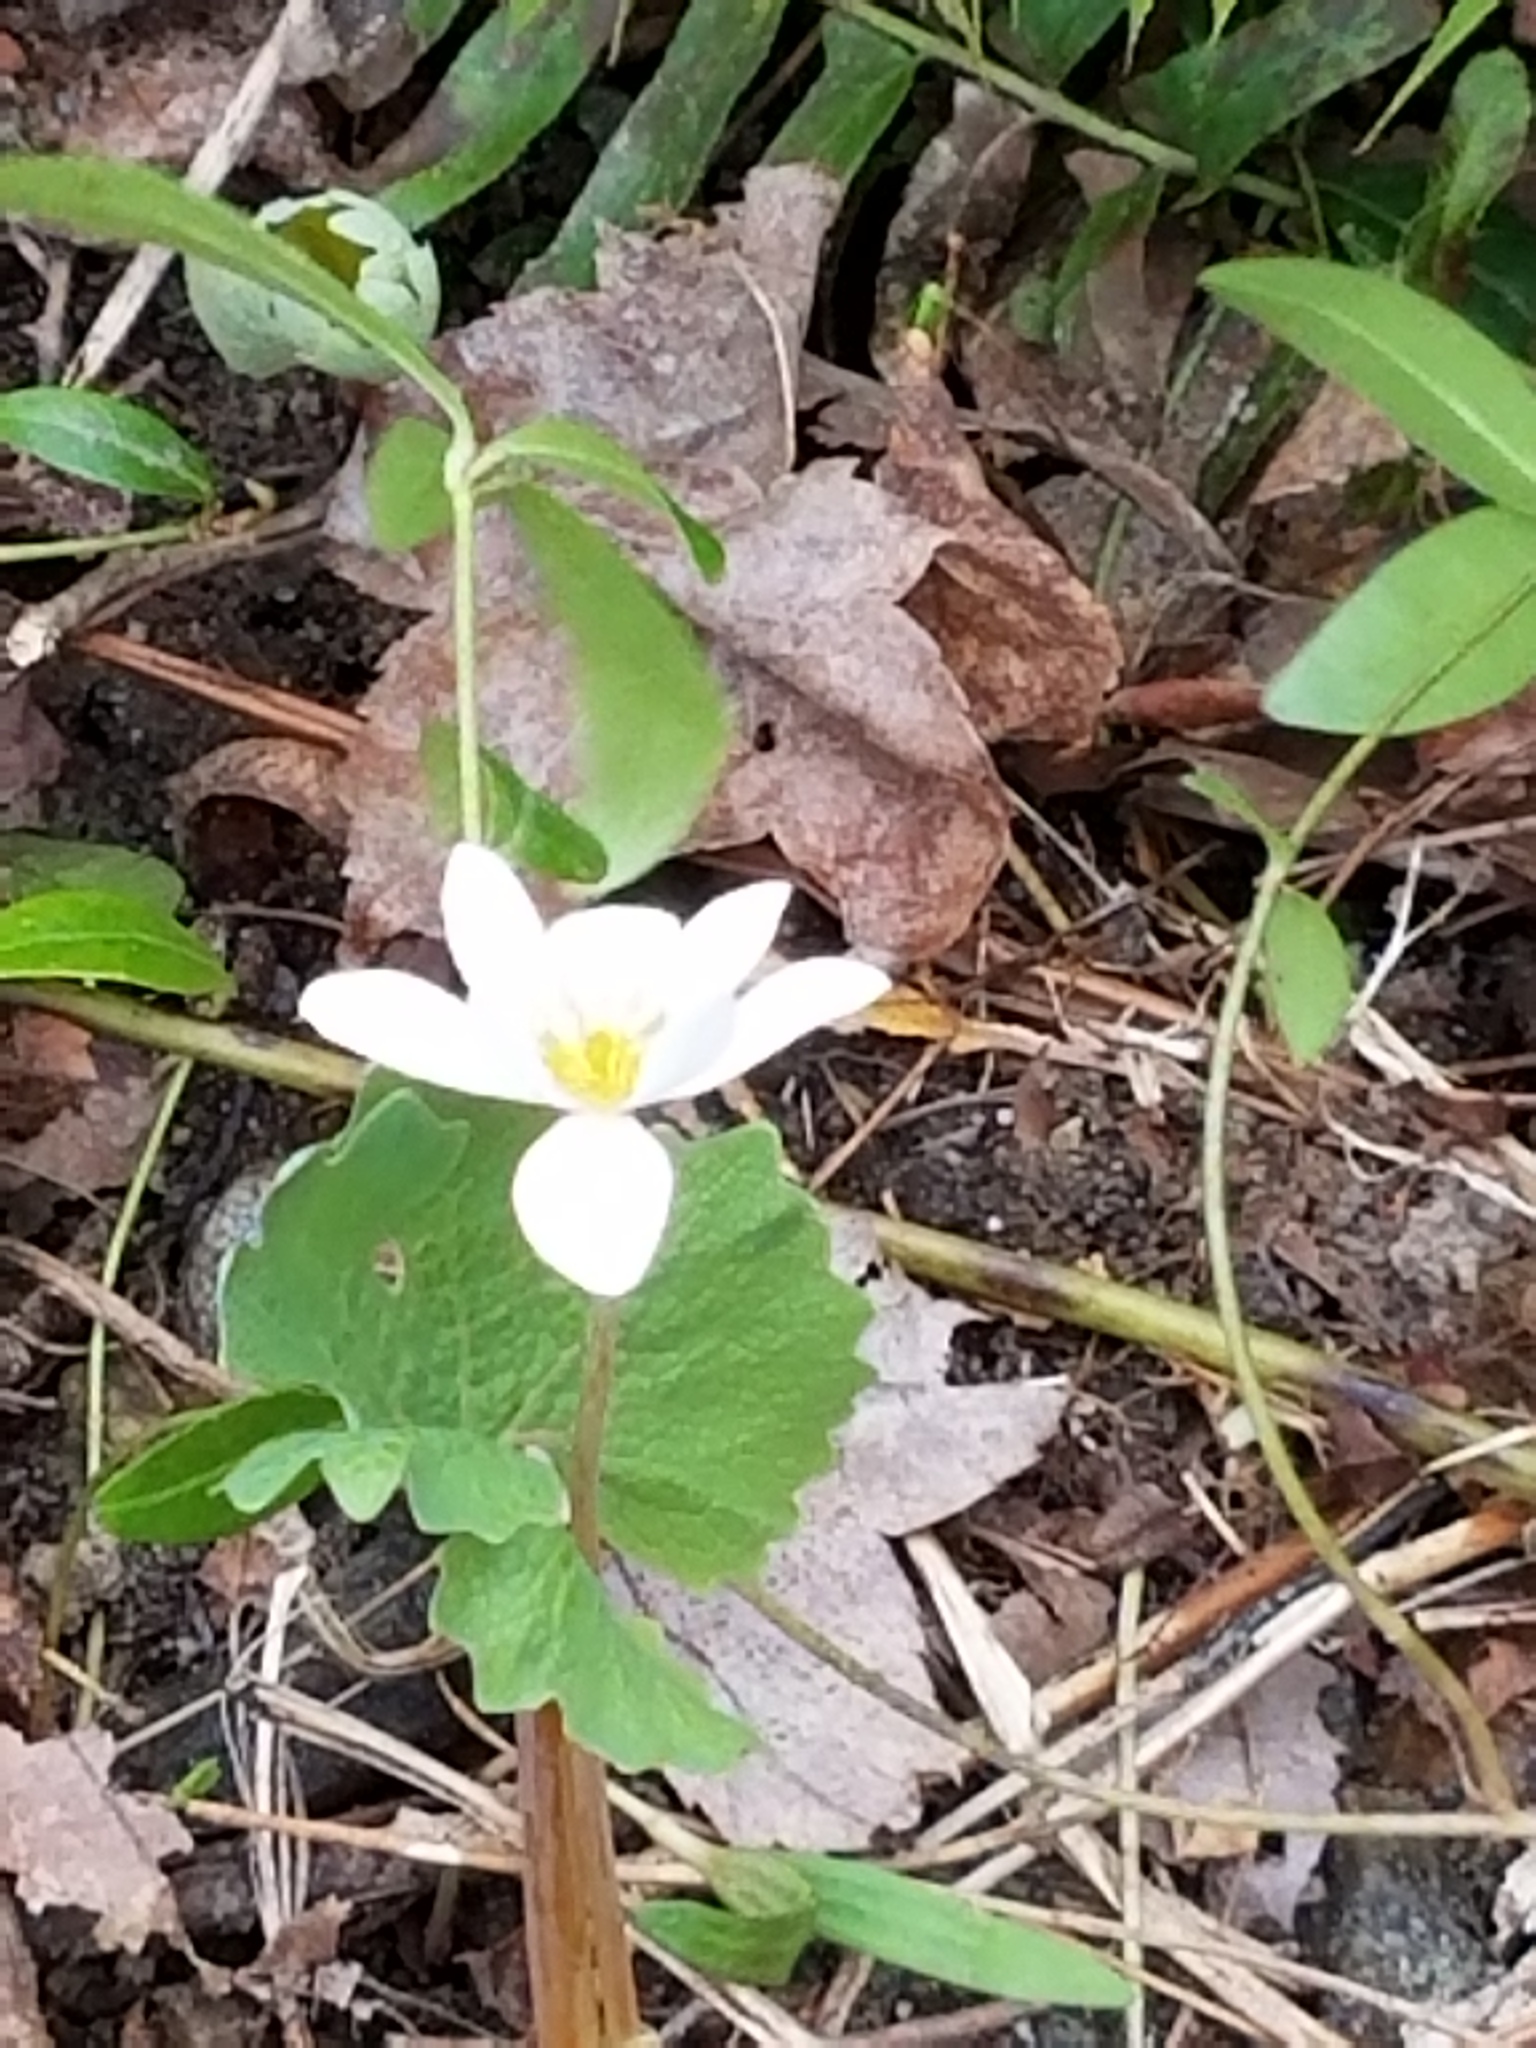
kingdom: Plantae
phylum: Tracheophyta
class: Magnoliopsida
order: Ranunculales
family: Papaveraceae
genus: Sanguinaria
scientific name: Sanguinaria canadensis
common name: Bloodroot
